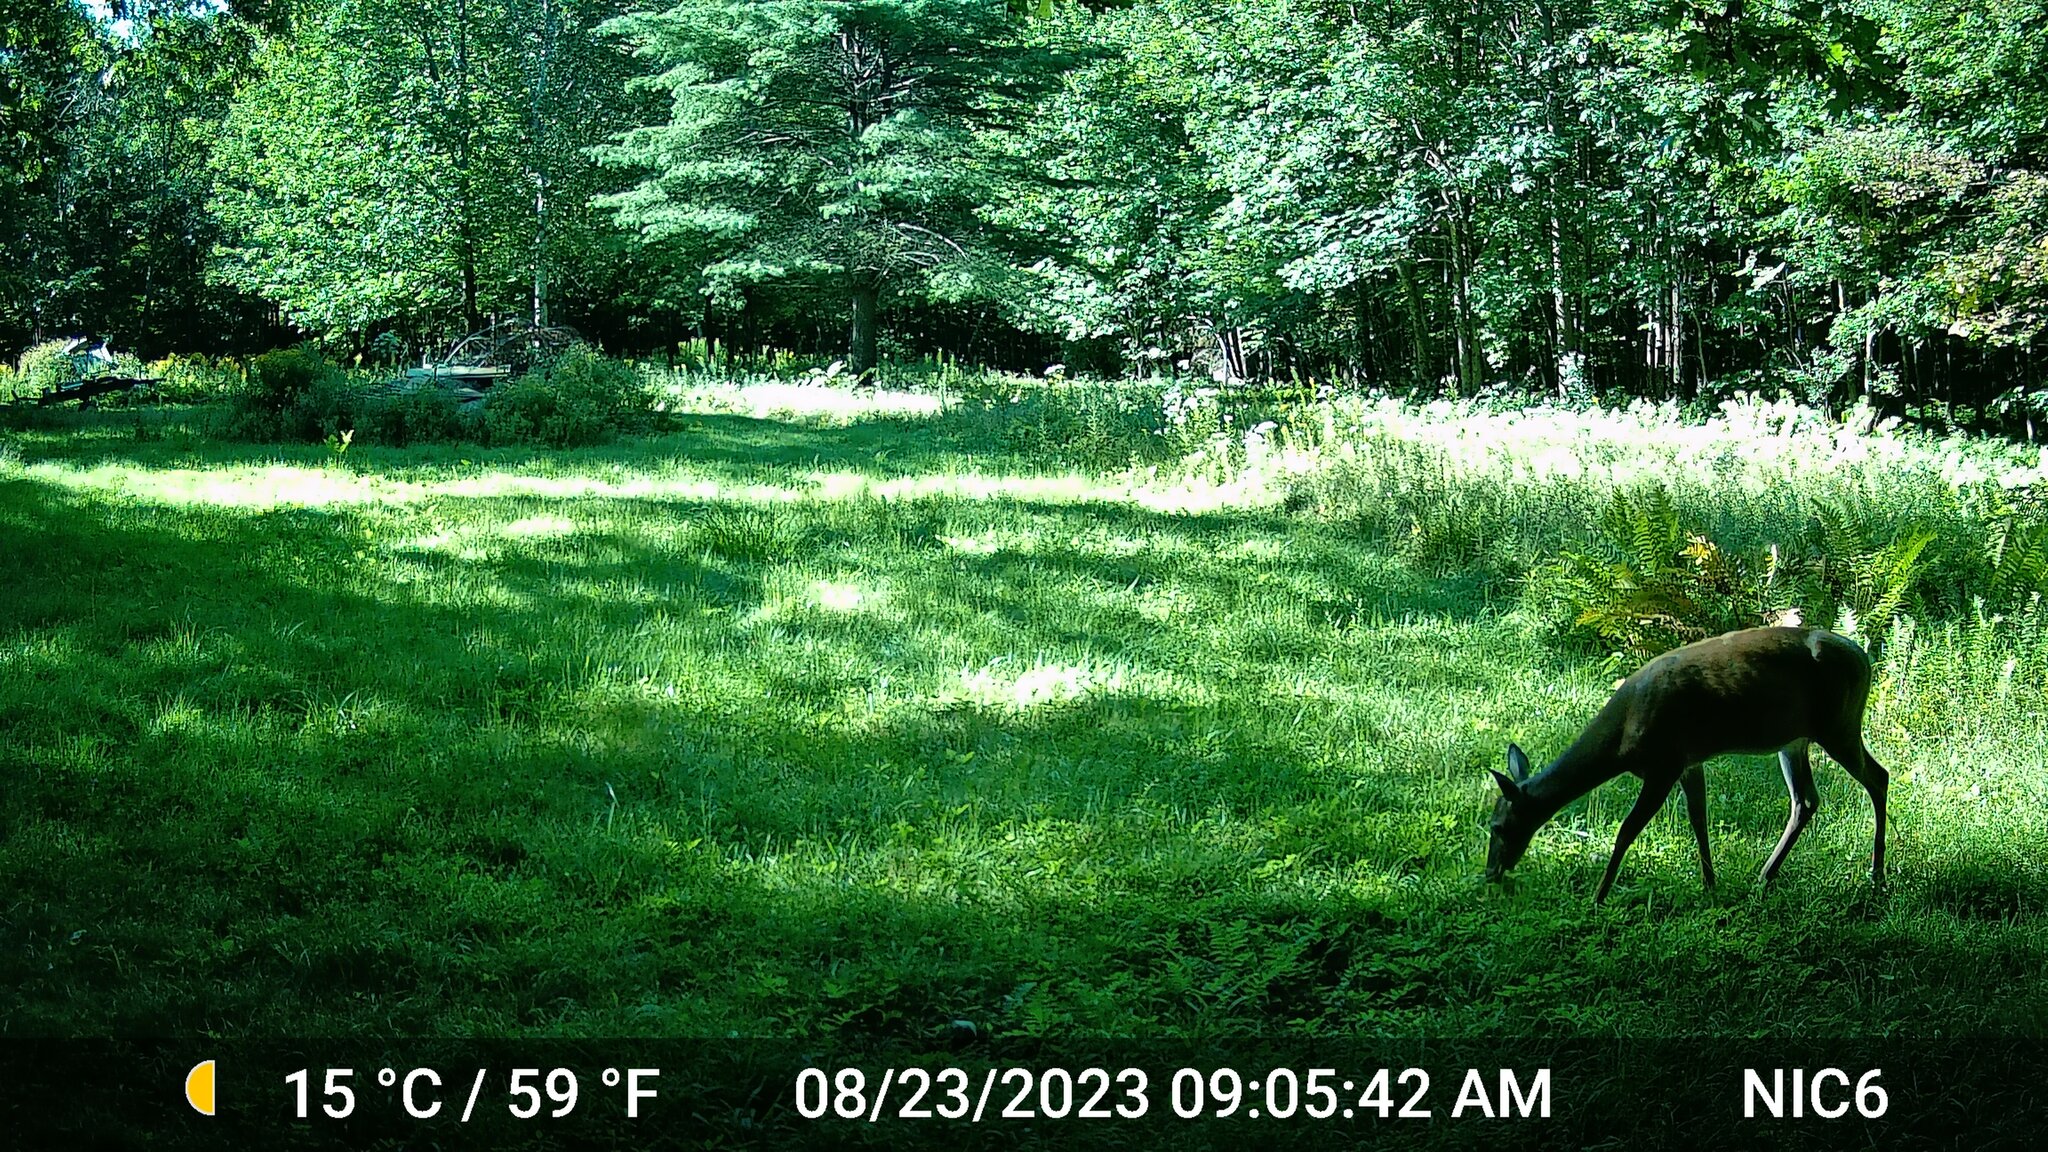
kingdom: Animalia
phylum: Chordata
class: Mammalia
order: Artiodactyla
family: Cervidae
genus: Odocoileus
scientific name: Odocoileus virginianus
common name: White-tailed deer
